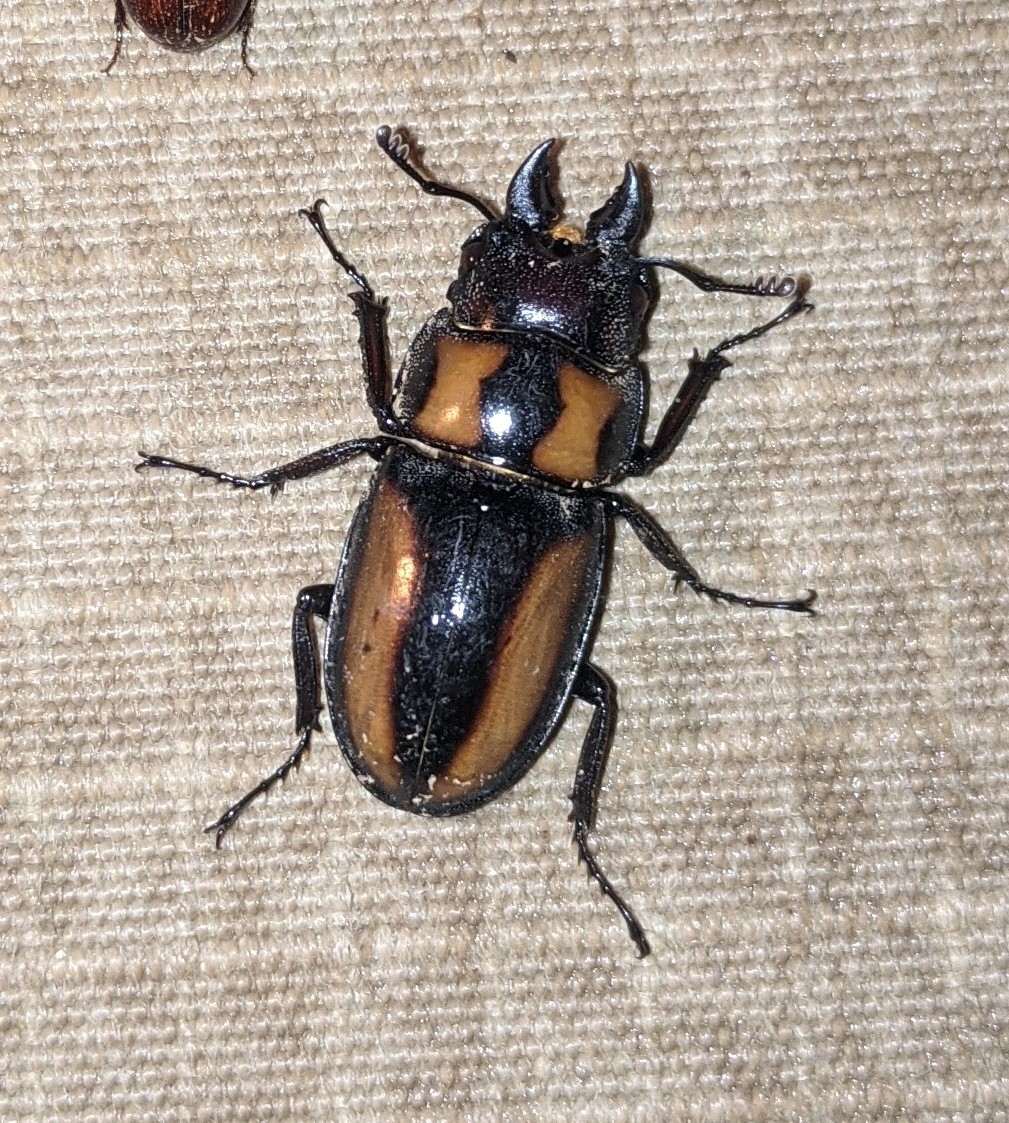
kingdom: Animalia
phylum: Arthropoda
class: Insecta
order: Coleoptera
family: Lucanidae
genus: Prosopocoilus
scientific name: Prosopocoilus biplagiatus
